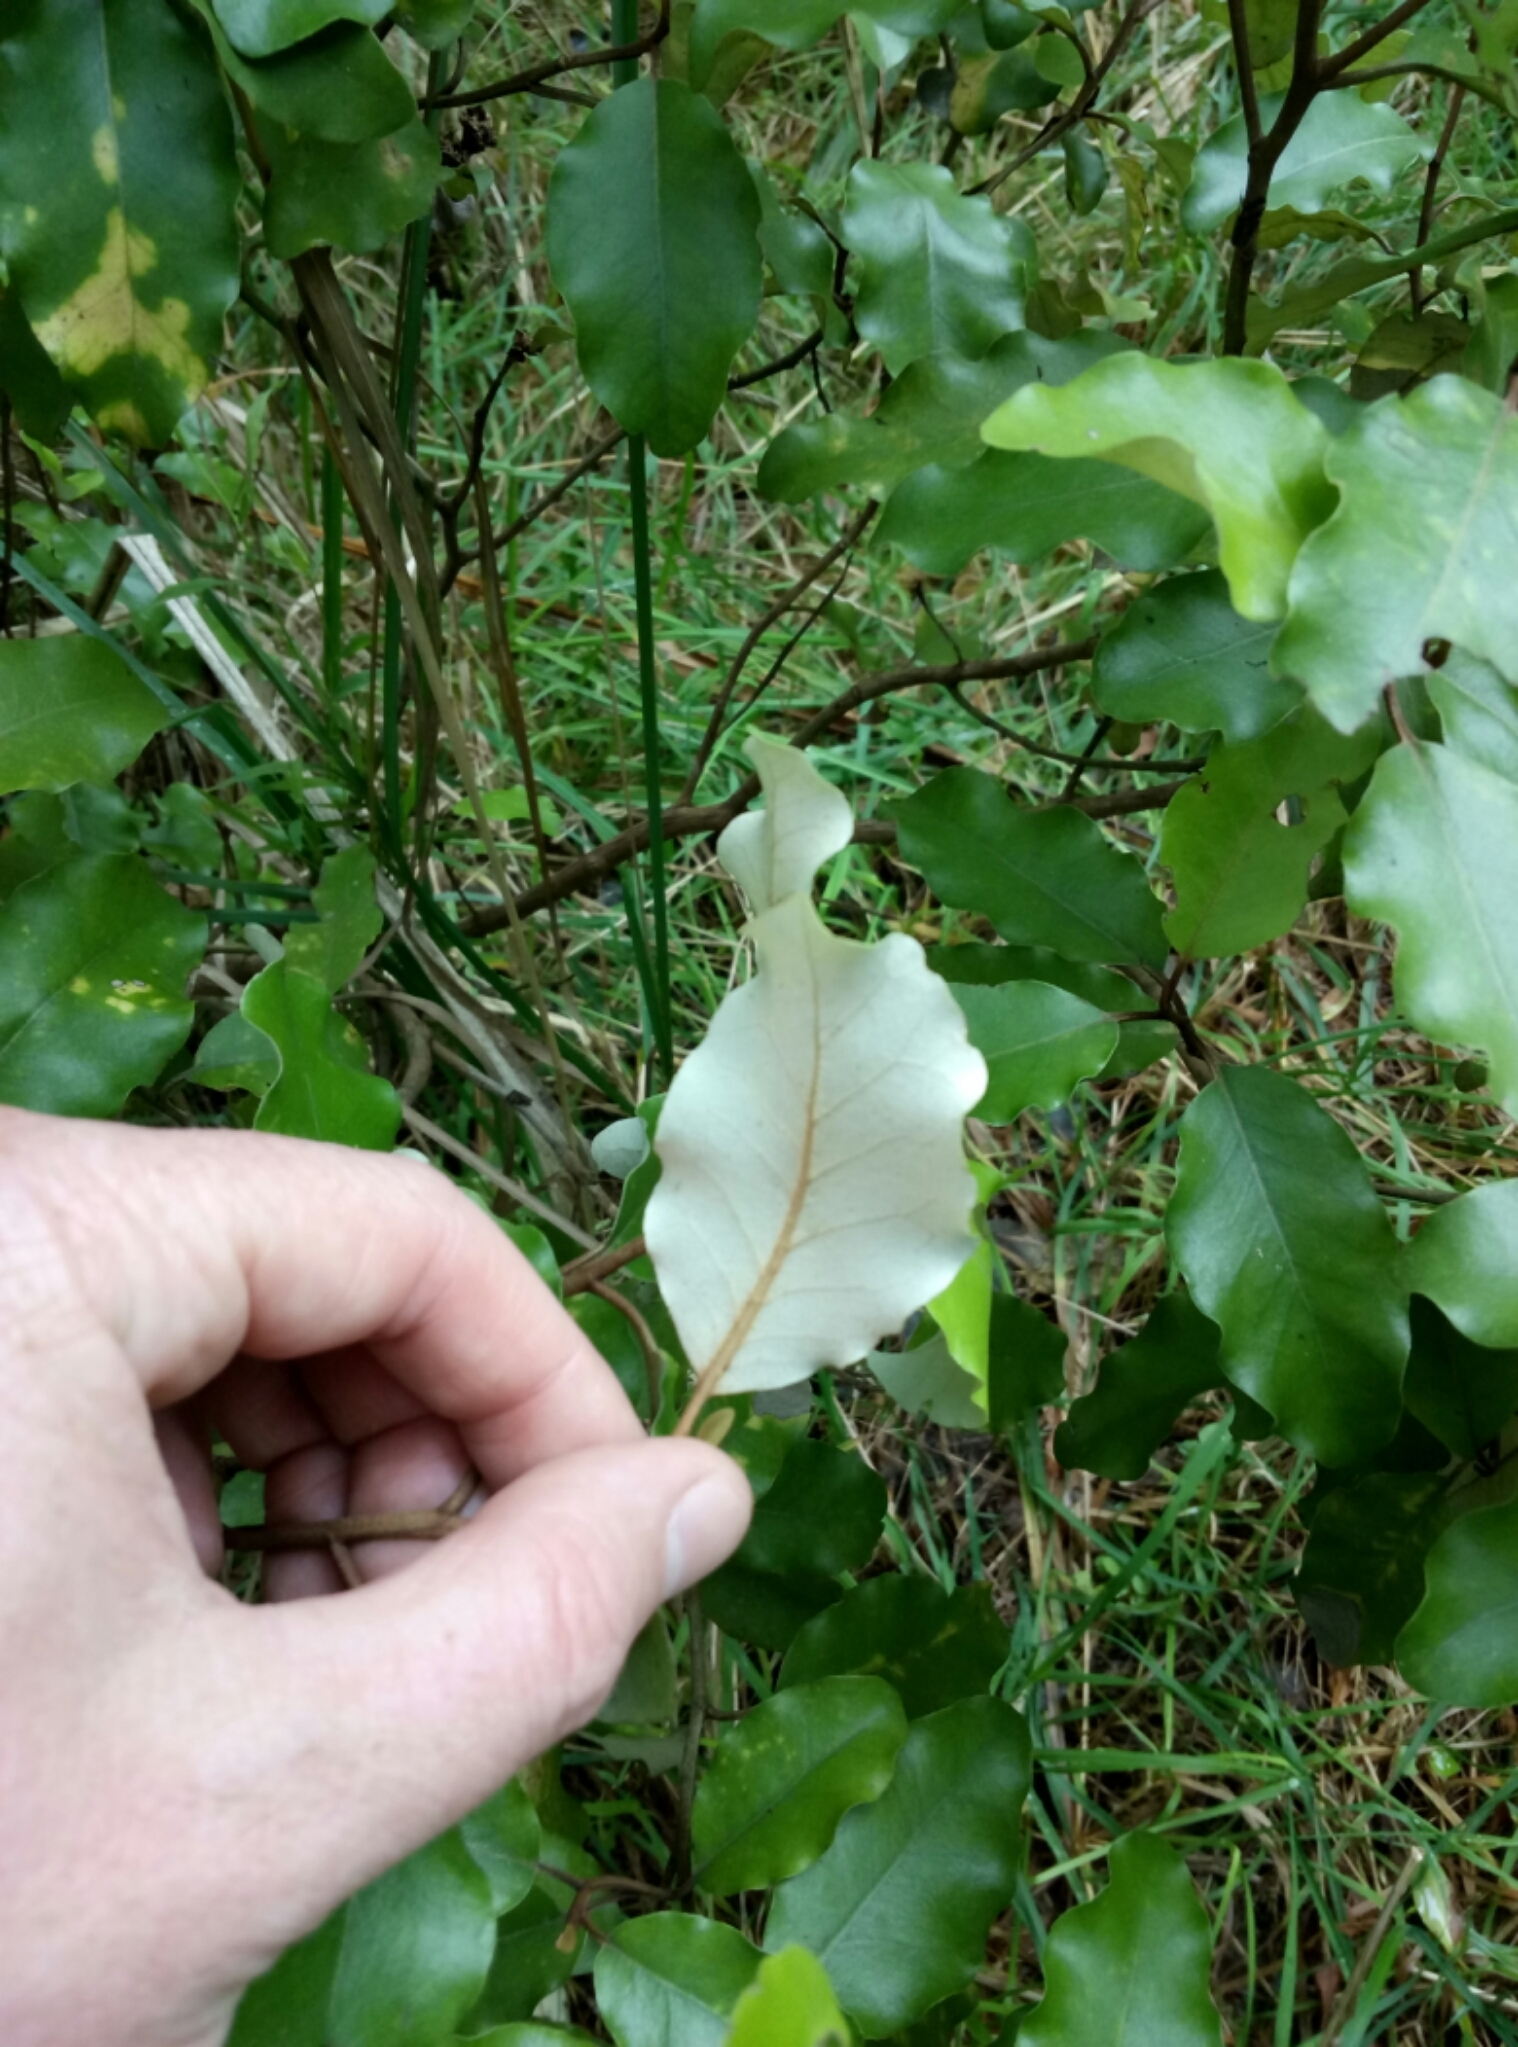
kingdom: Plantae
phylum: Tracheophyta
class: Magnoliopsida
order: Asterales
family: Asteraceae
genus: Olearia
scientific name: Olearia paniculata
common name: Akiraho
